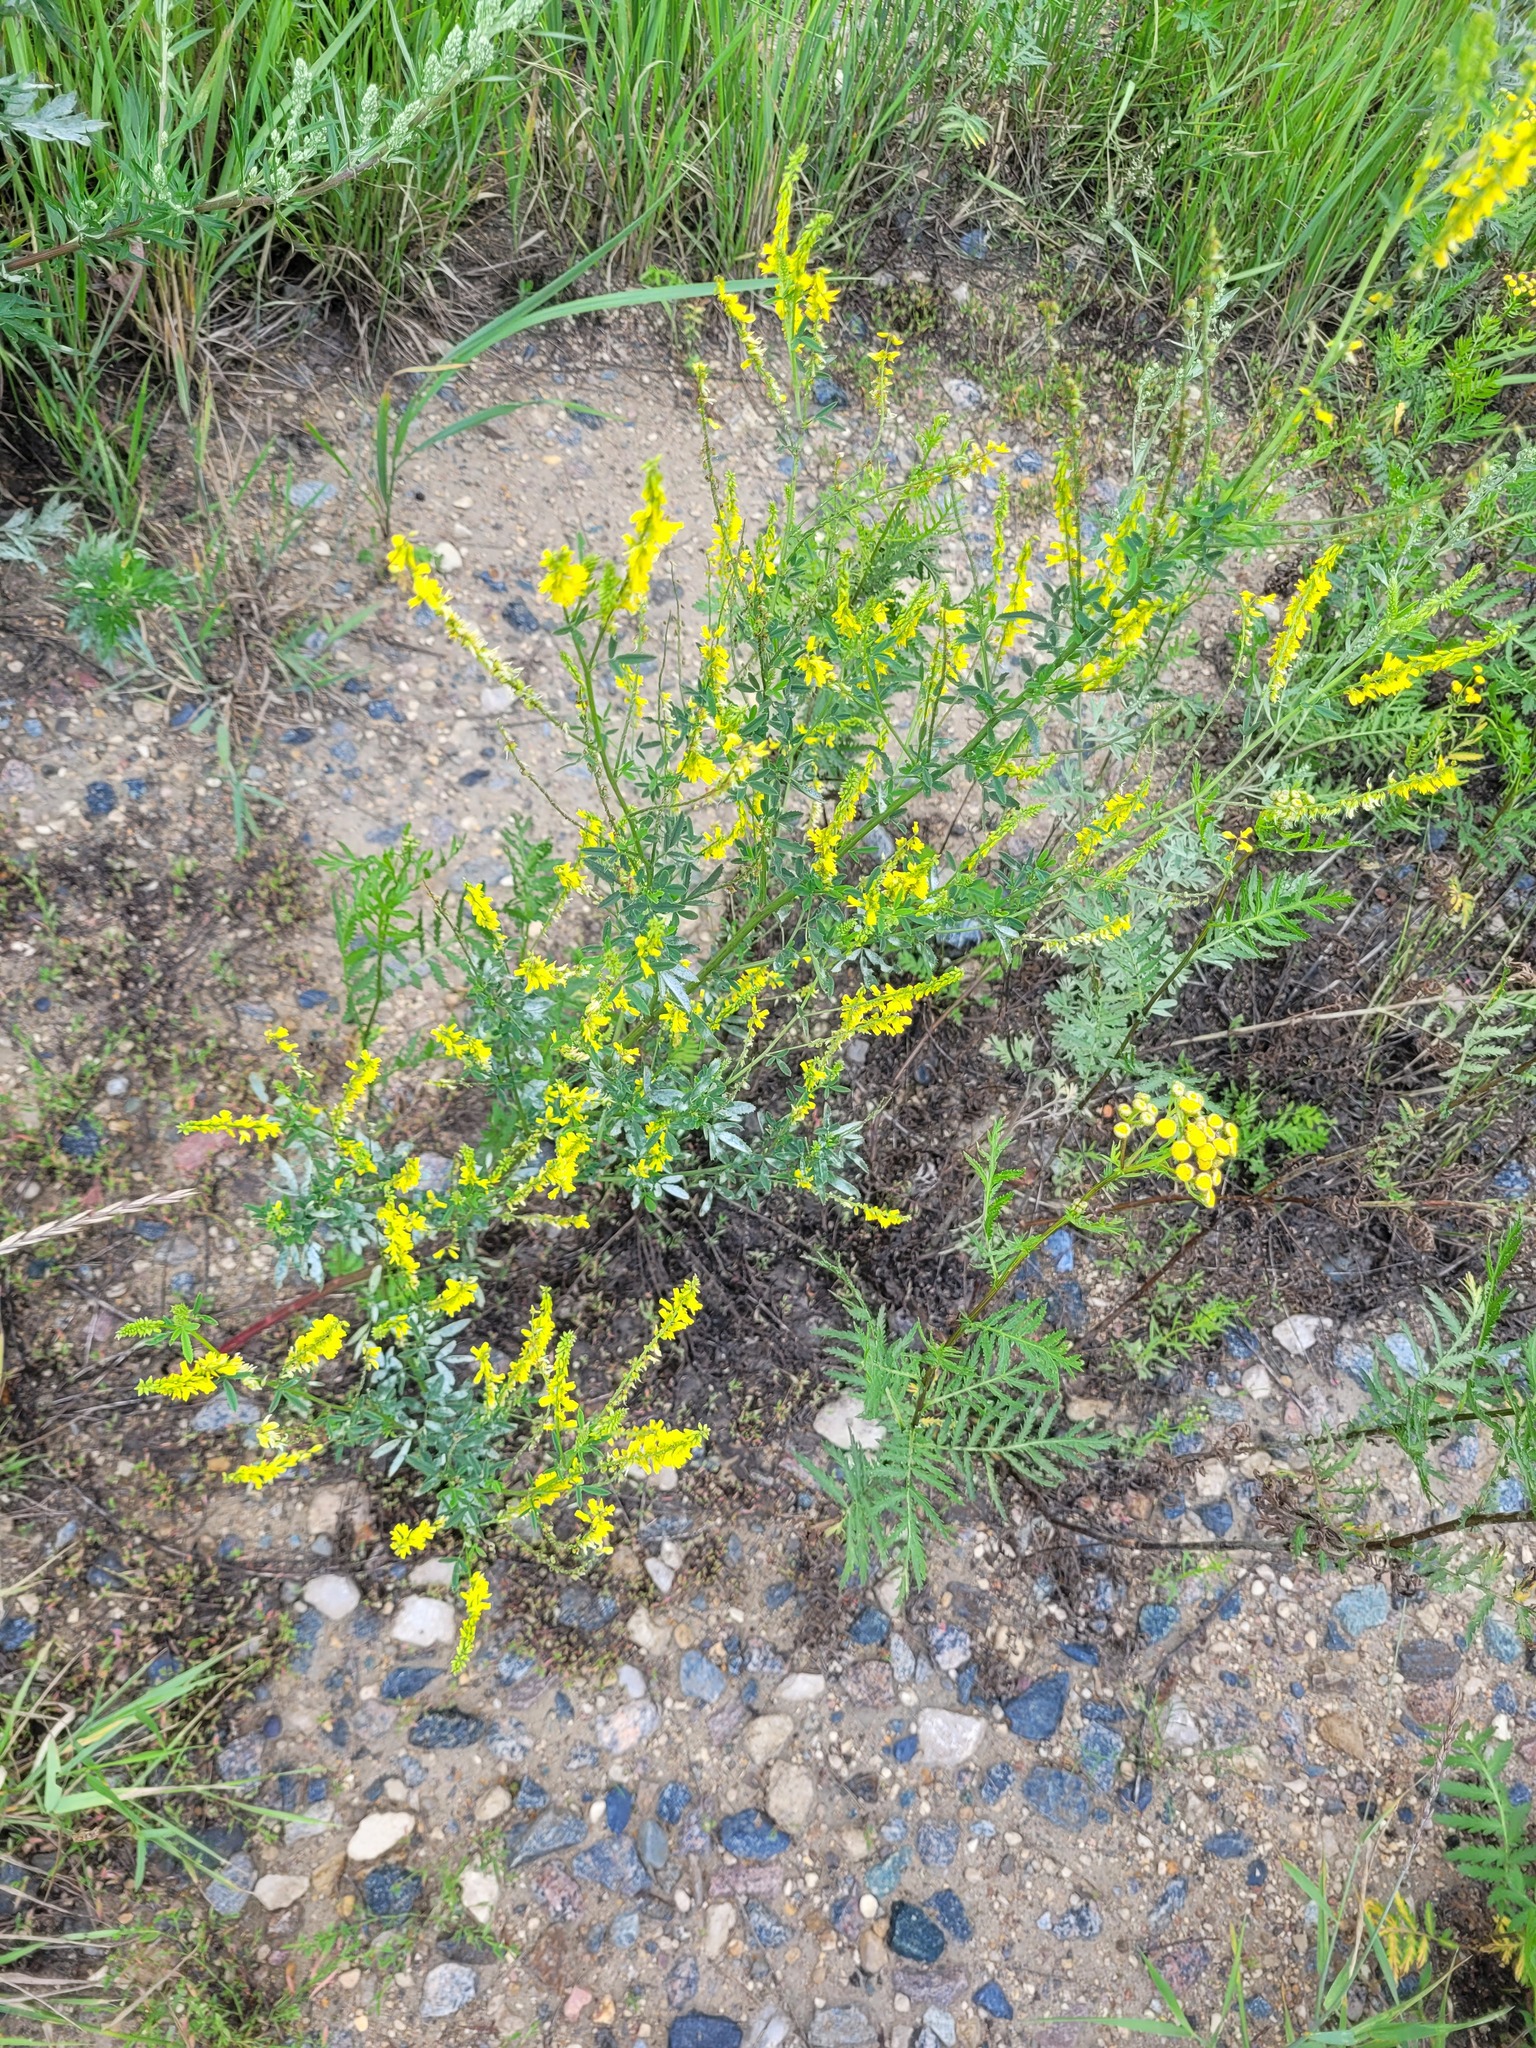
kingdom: Plantae
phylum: Tracheophyta
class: Magnoliopsida
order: Fabales
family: Fabaceae
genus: Melilotus
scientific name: Melilotus officinalis
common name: Sweetclover
